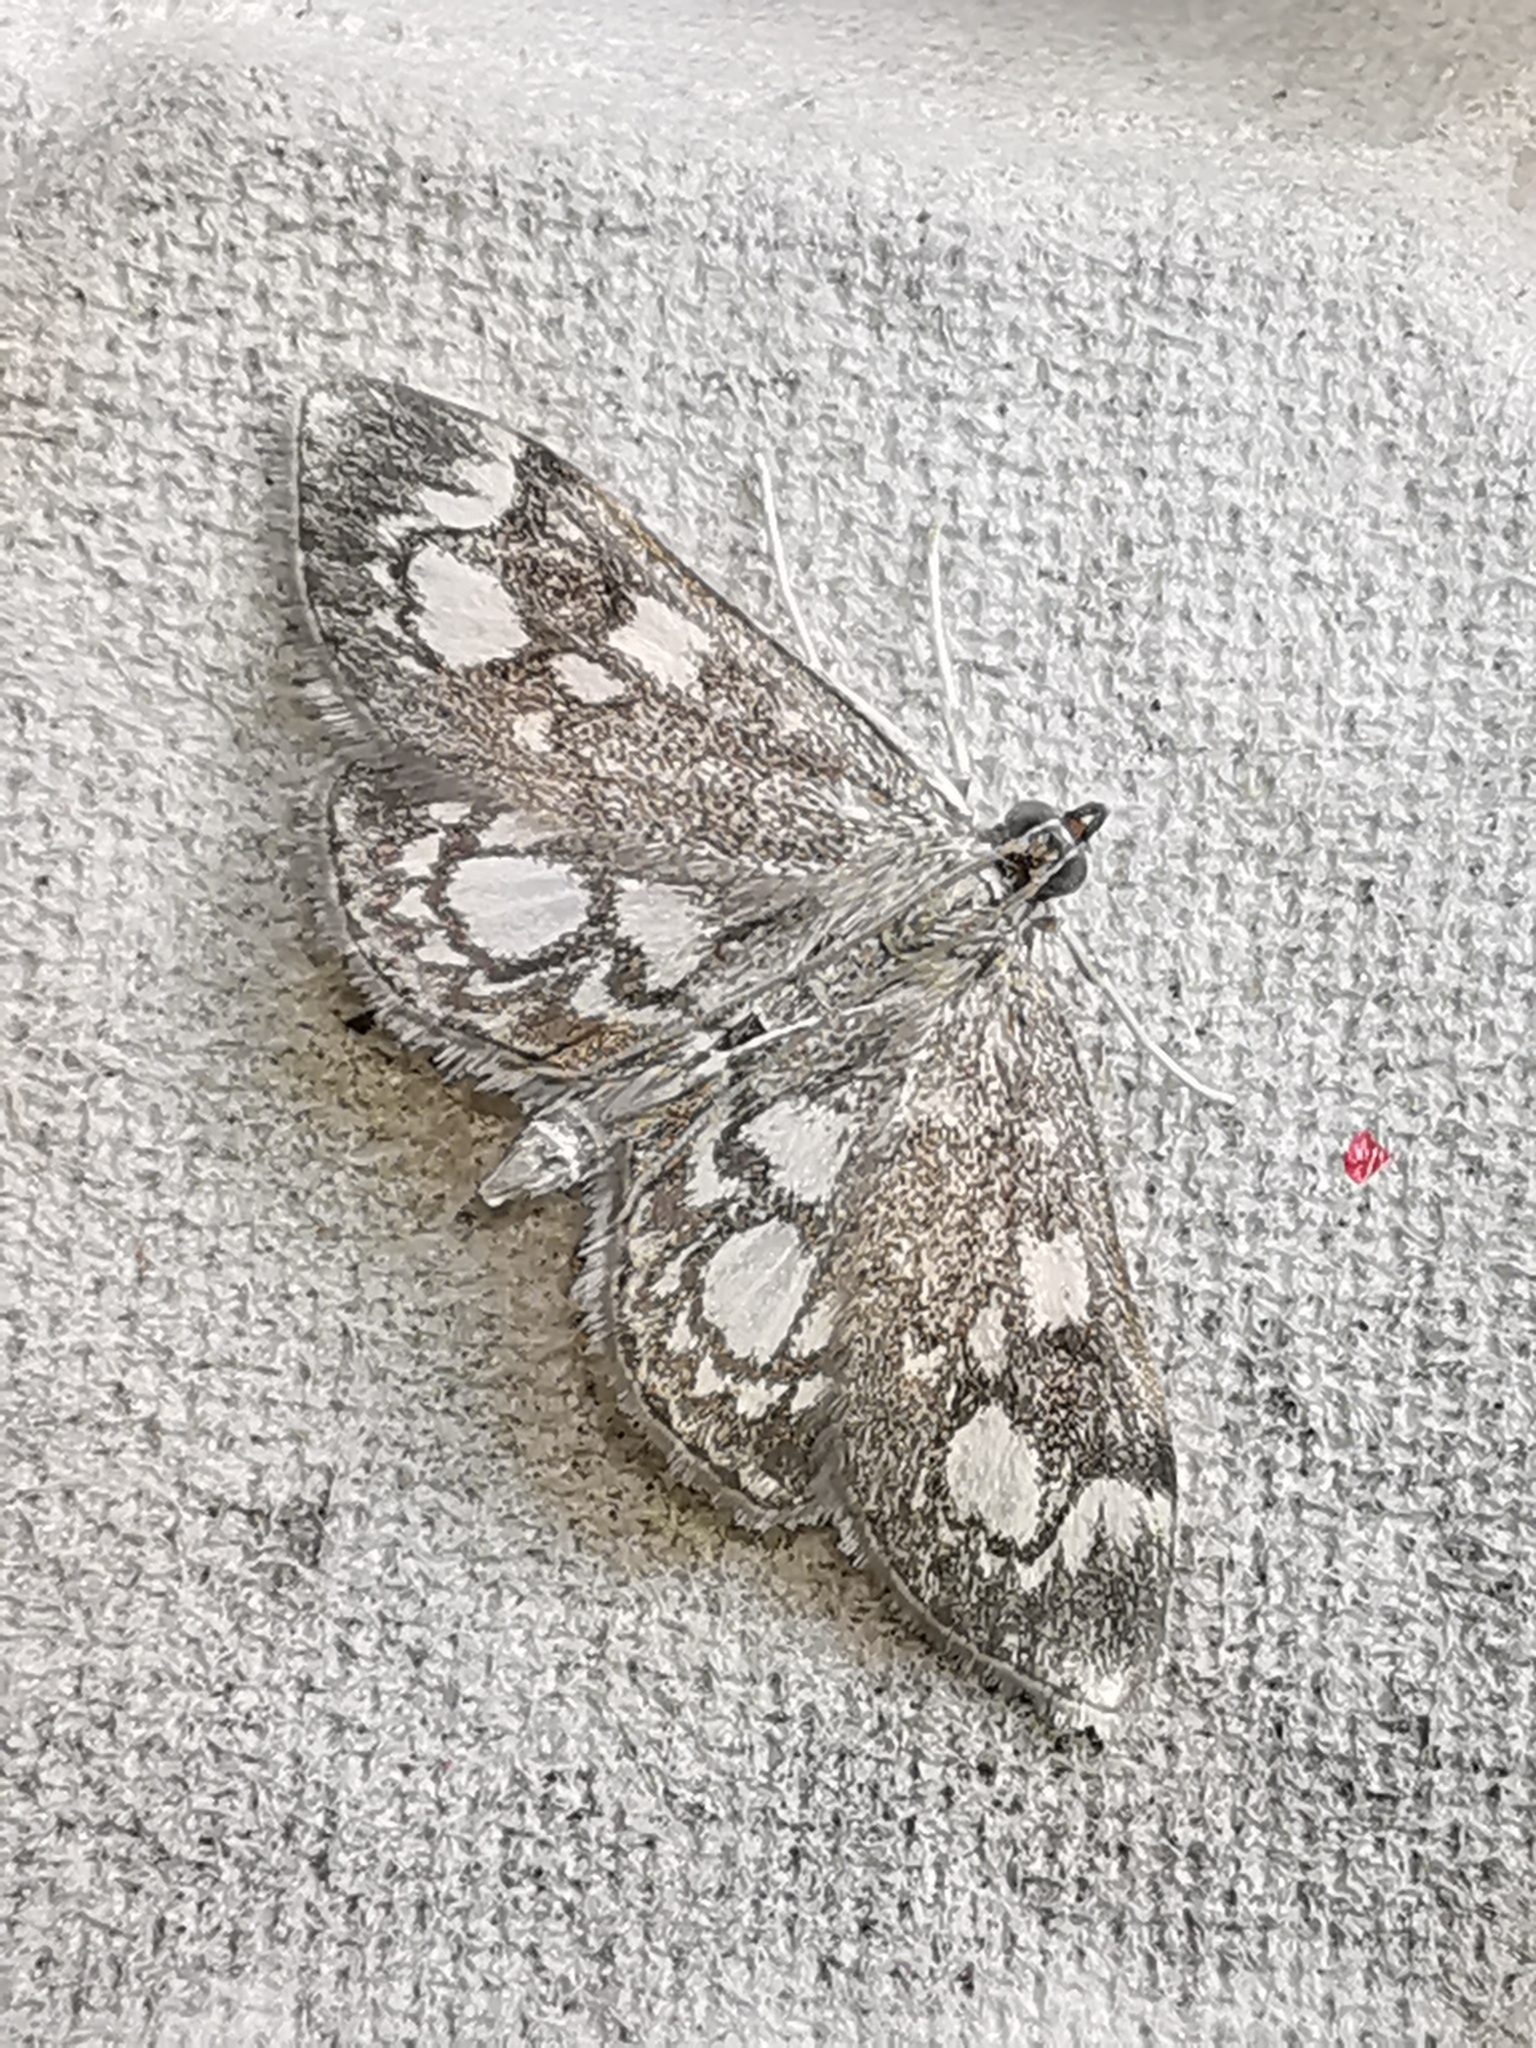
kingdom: Animalia
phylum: Arthropoda
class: Insecta
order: Lepidoptera
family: Crambidae
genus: Anania
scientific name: Anania coronata
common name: Elder pearl
